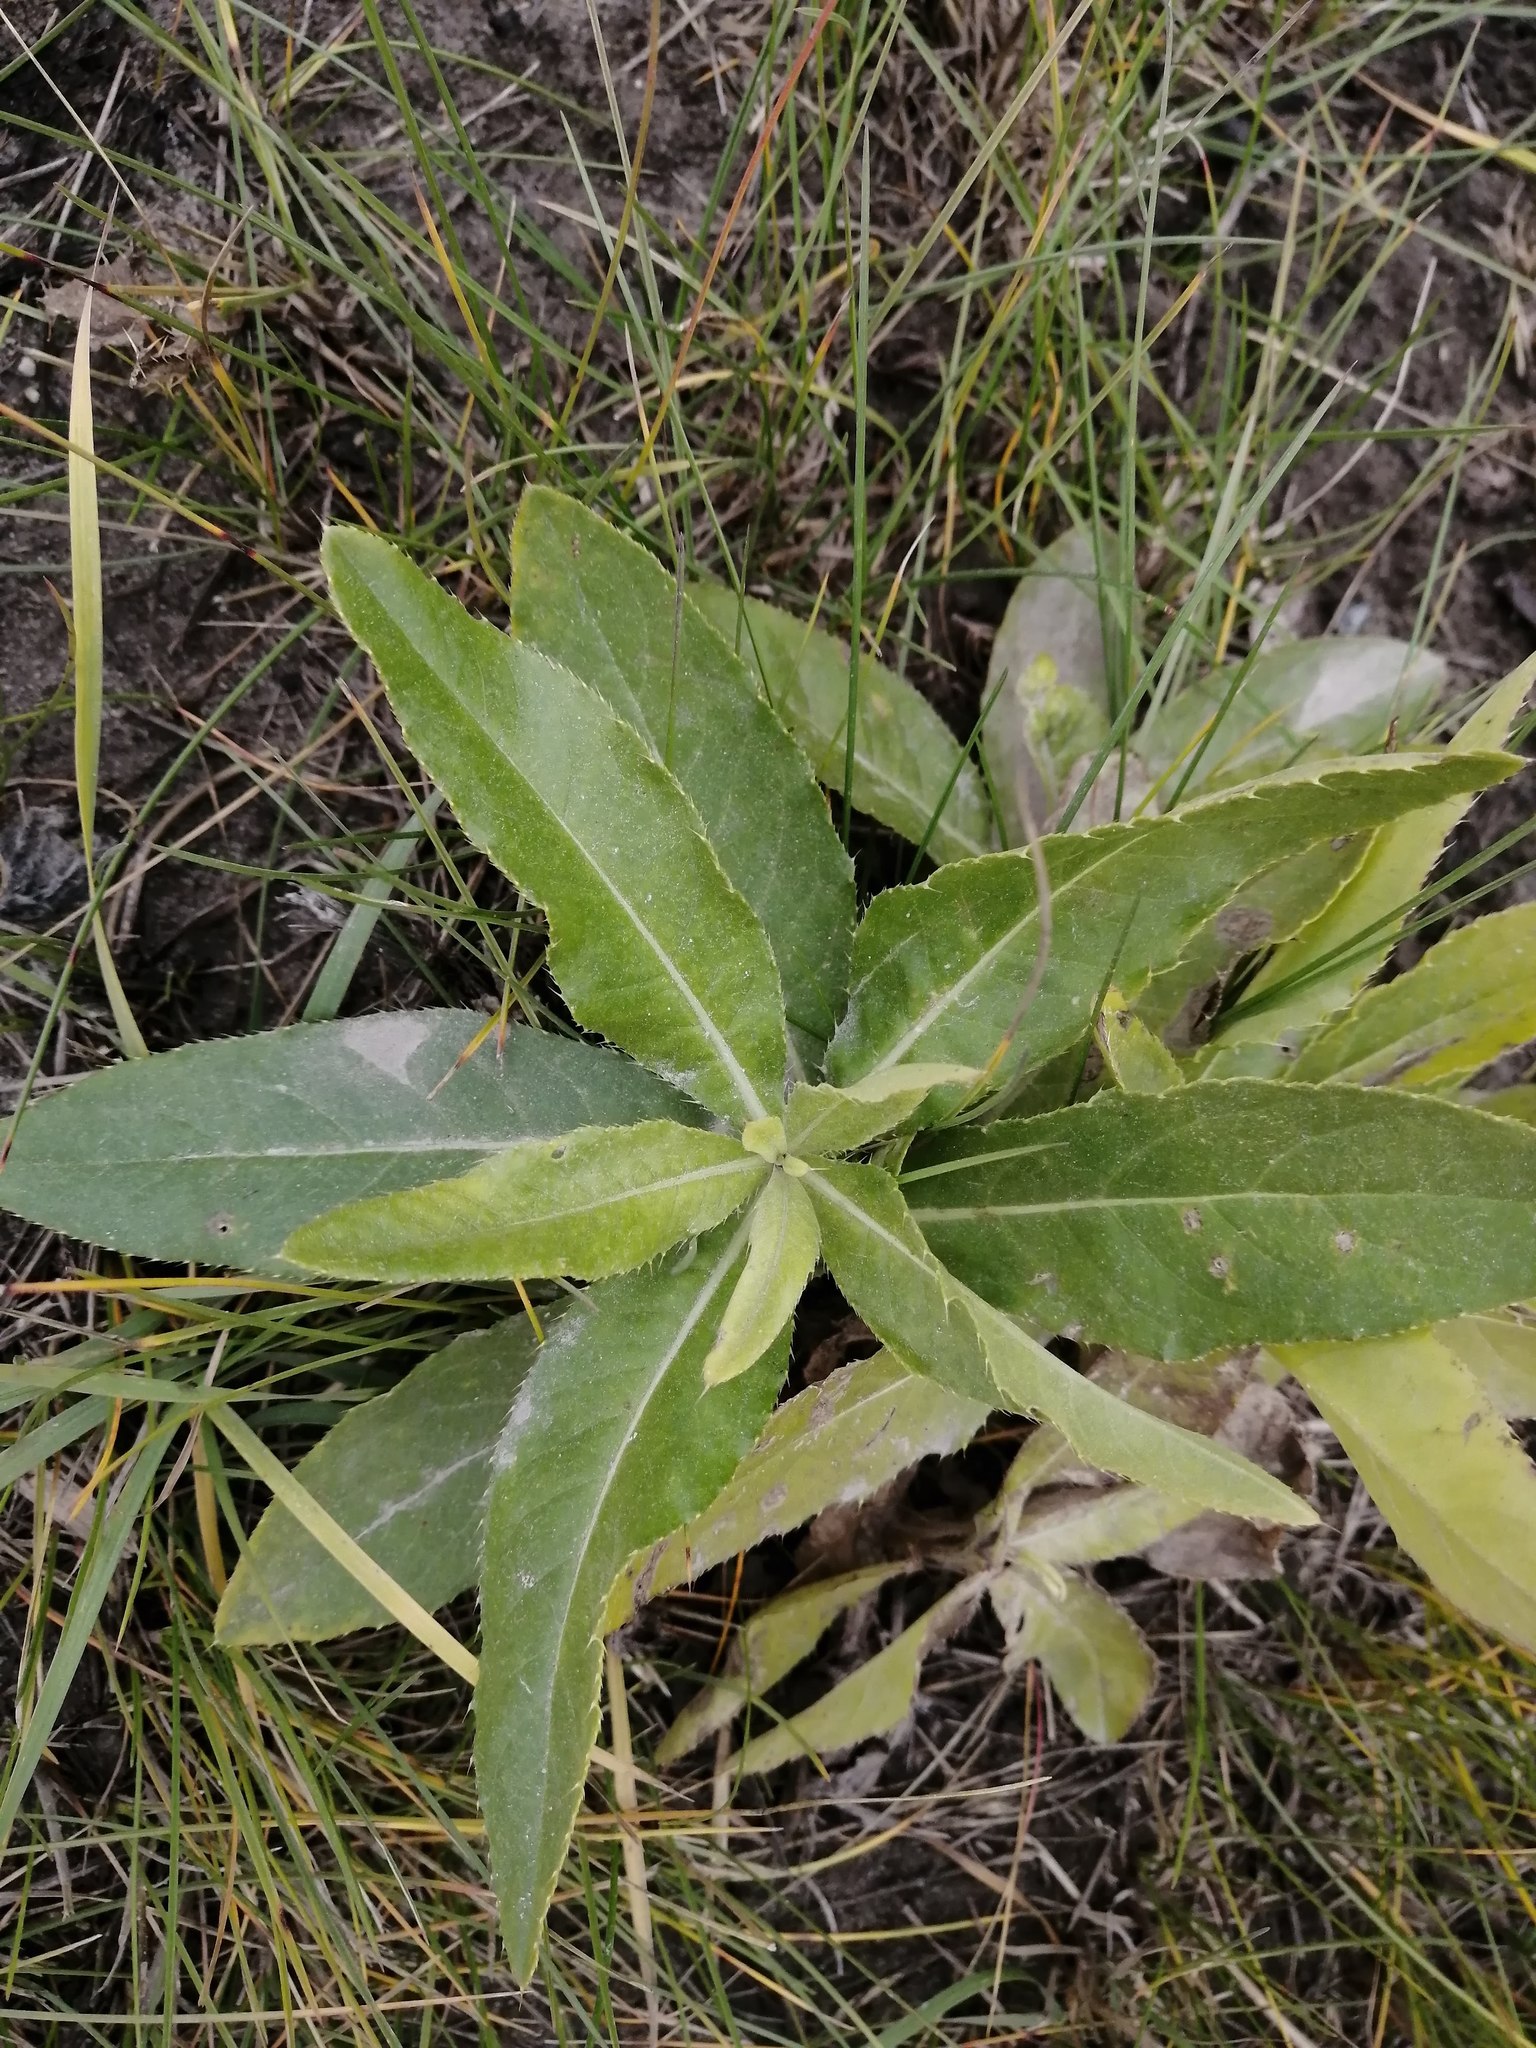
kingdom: Plantae
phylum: Tracheophyta
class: Magnoliopsida
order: Asterales
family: Asteraceae
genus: Cirsium
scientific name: Cirsium arvense
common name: Creeping thistle
